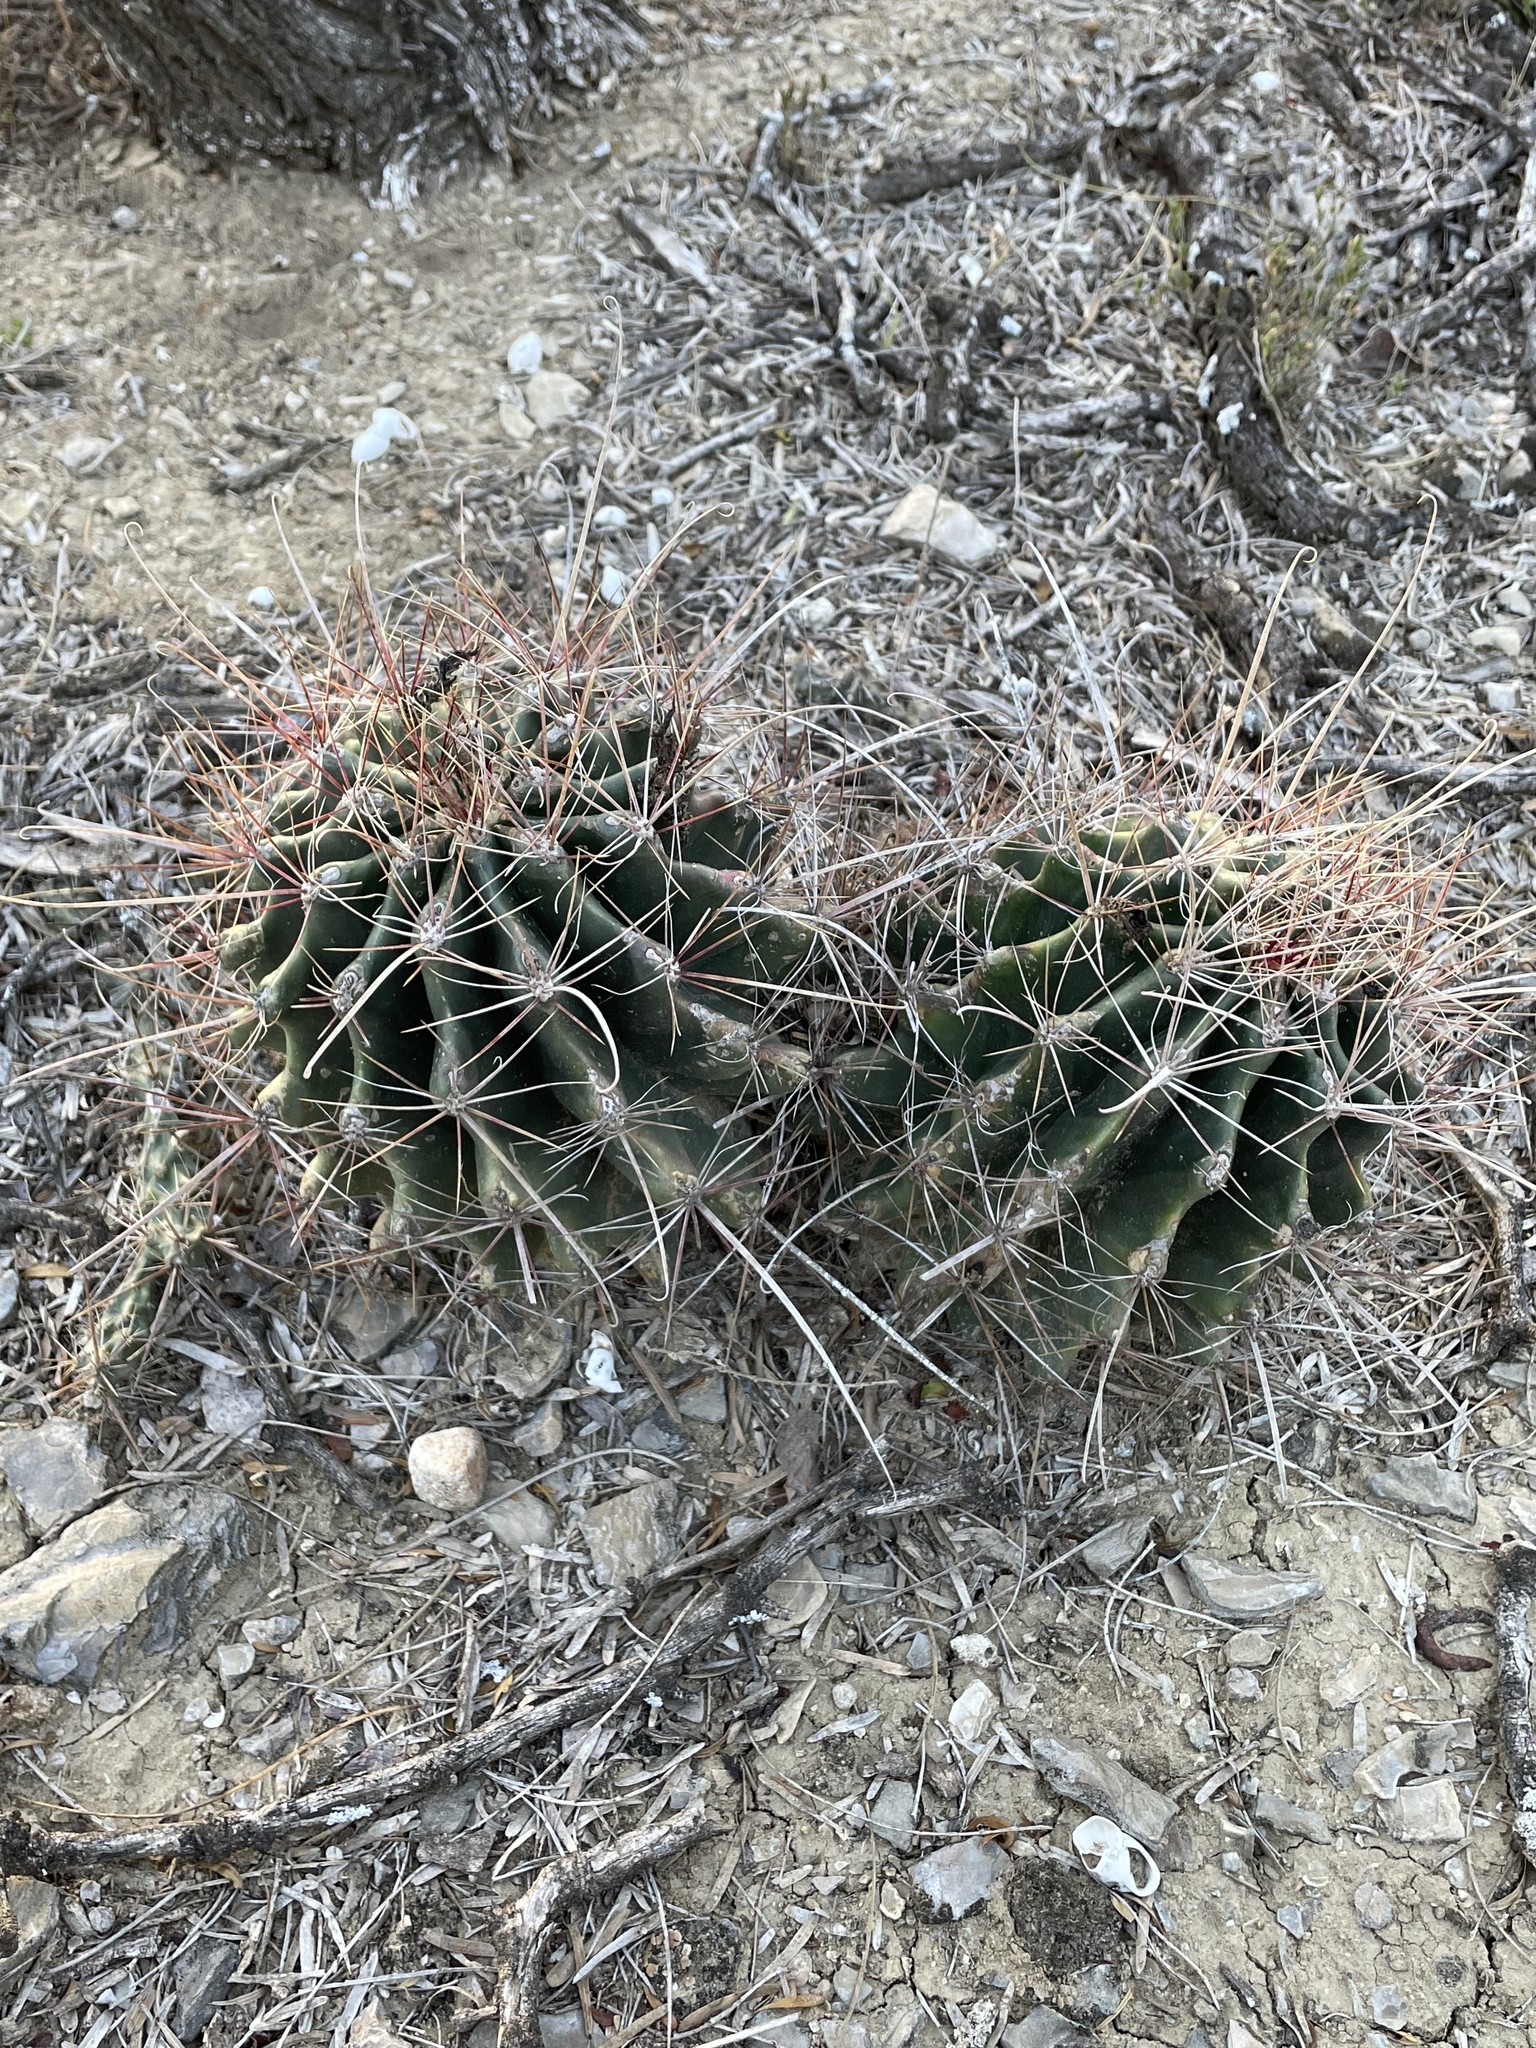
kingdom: Plantae
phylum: Tracheophyta
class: Magnoliopsida
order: Caryophyllales
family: Cactaceae
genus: Bisnaga
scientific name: Bisnaga hamatacantha
